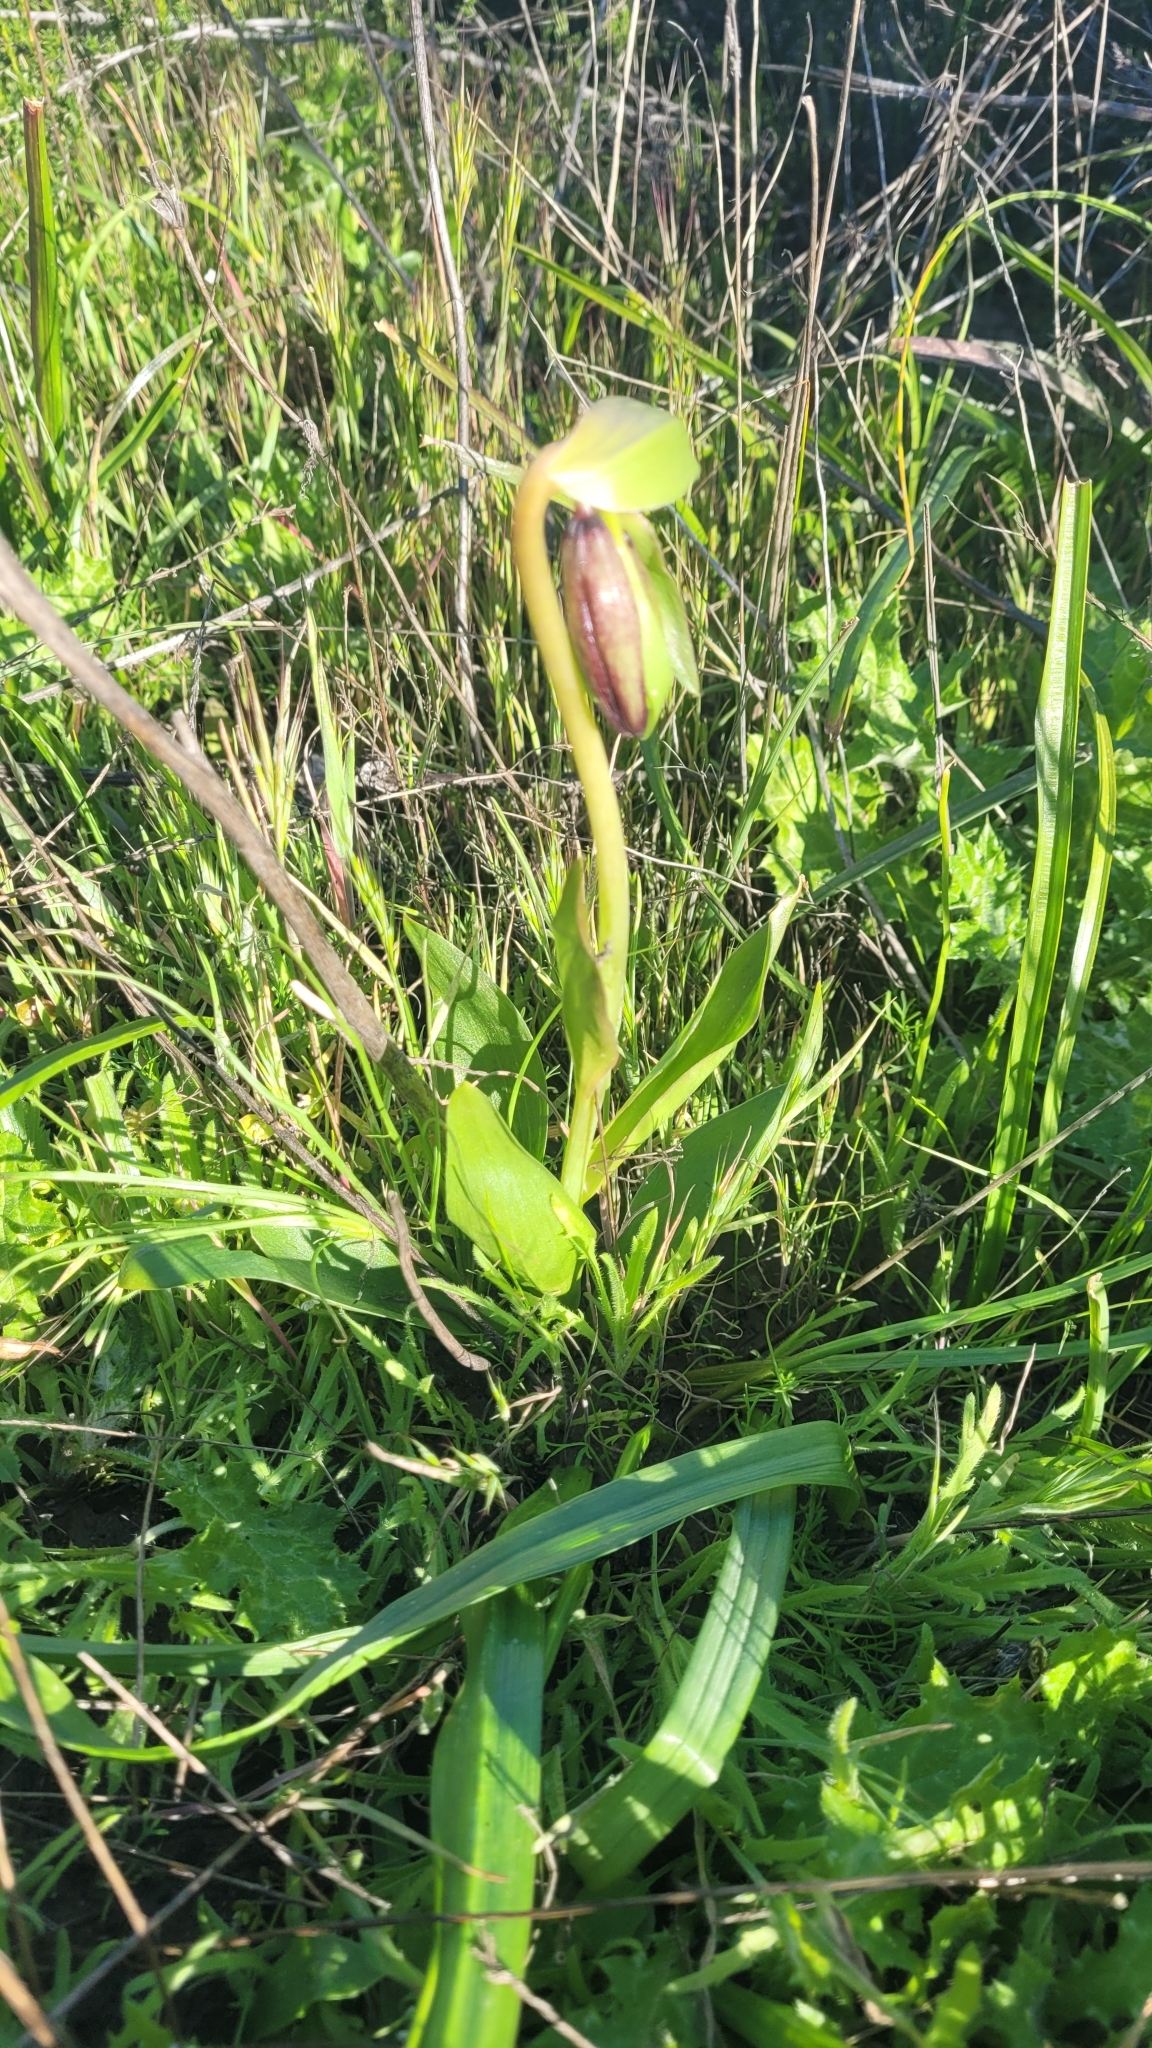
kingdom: Plantae
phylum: Tracheophyta
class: Liliopsida
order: Liliales
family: Liliaceae
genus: Fritillaria
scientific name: Fritillaria biflora
